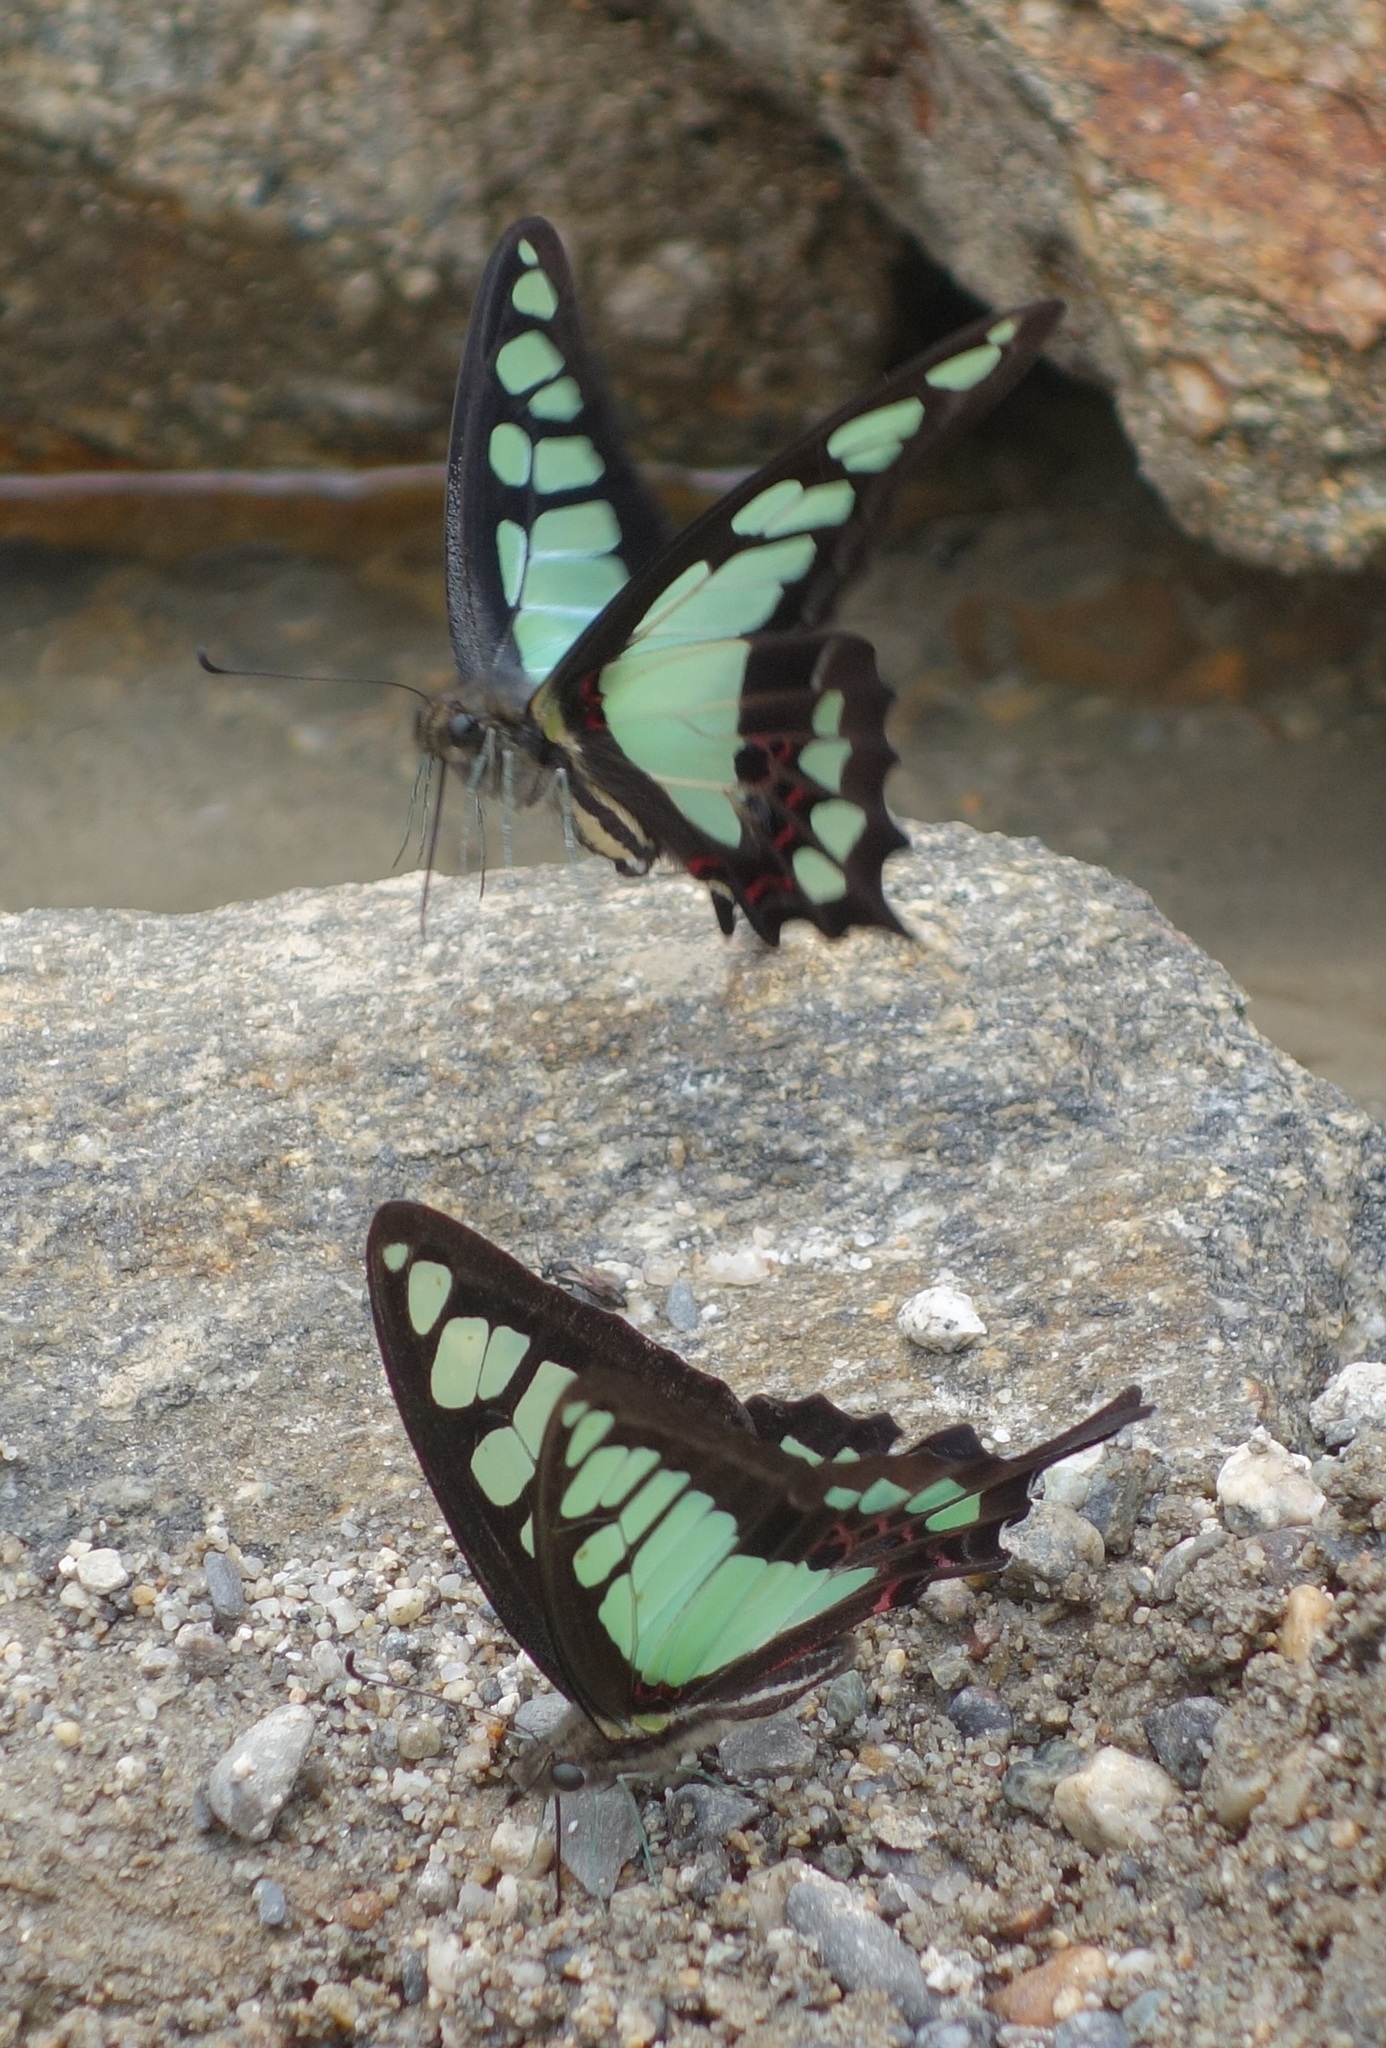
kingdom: Animalia
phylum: Arthropoda
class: Insecta
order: Lepidoptera
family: Papilionidae
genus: Graphium
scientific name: Graphium cloanthus
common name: Glassy bluebottle
